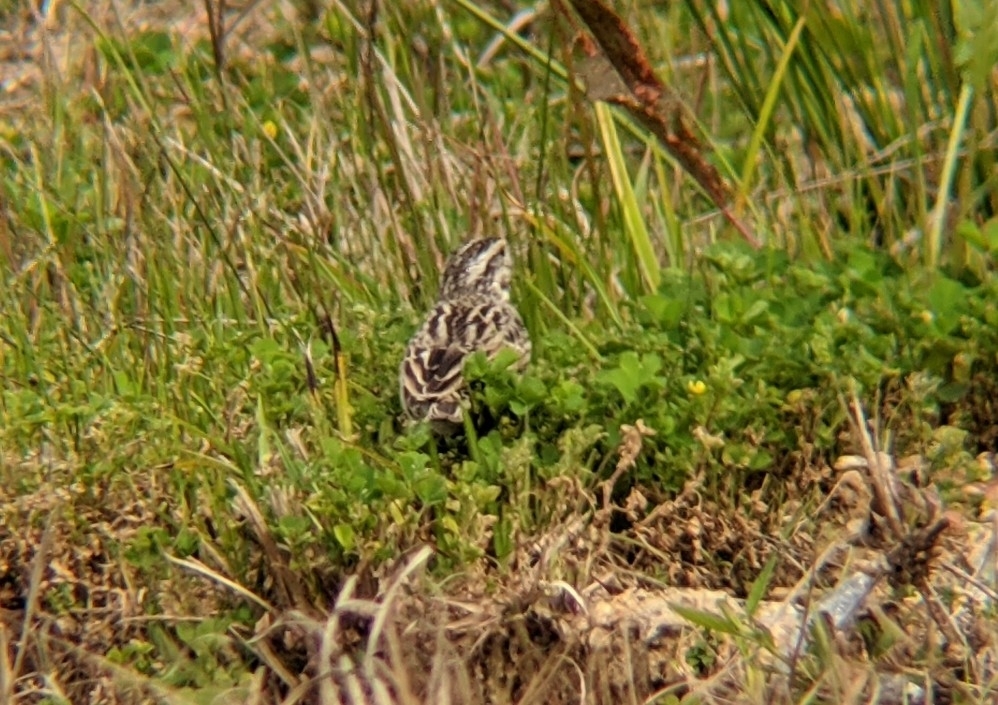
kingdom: Animalia
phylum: Chordata
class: Aves
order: Passeriformes
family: Passerellidae
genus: Passerculus
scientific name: Passerculus sandwichensis
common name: Savannah sparrow
